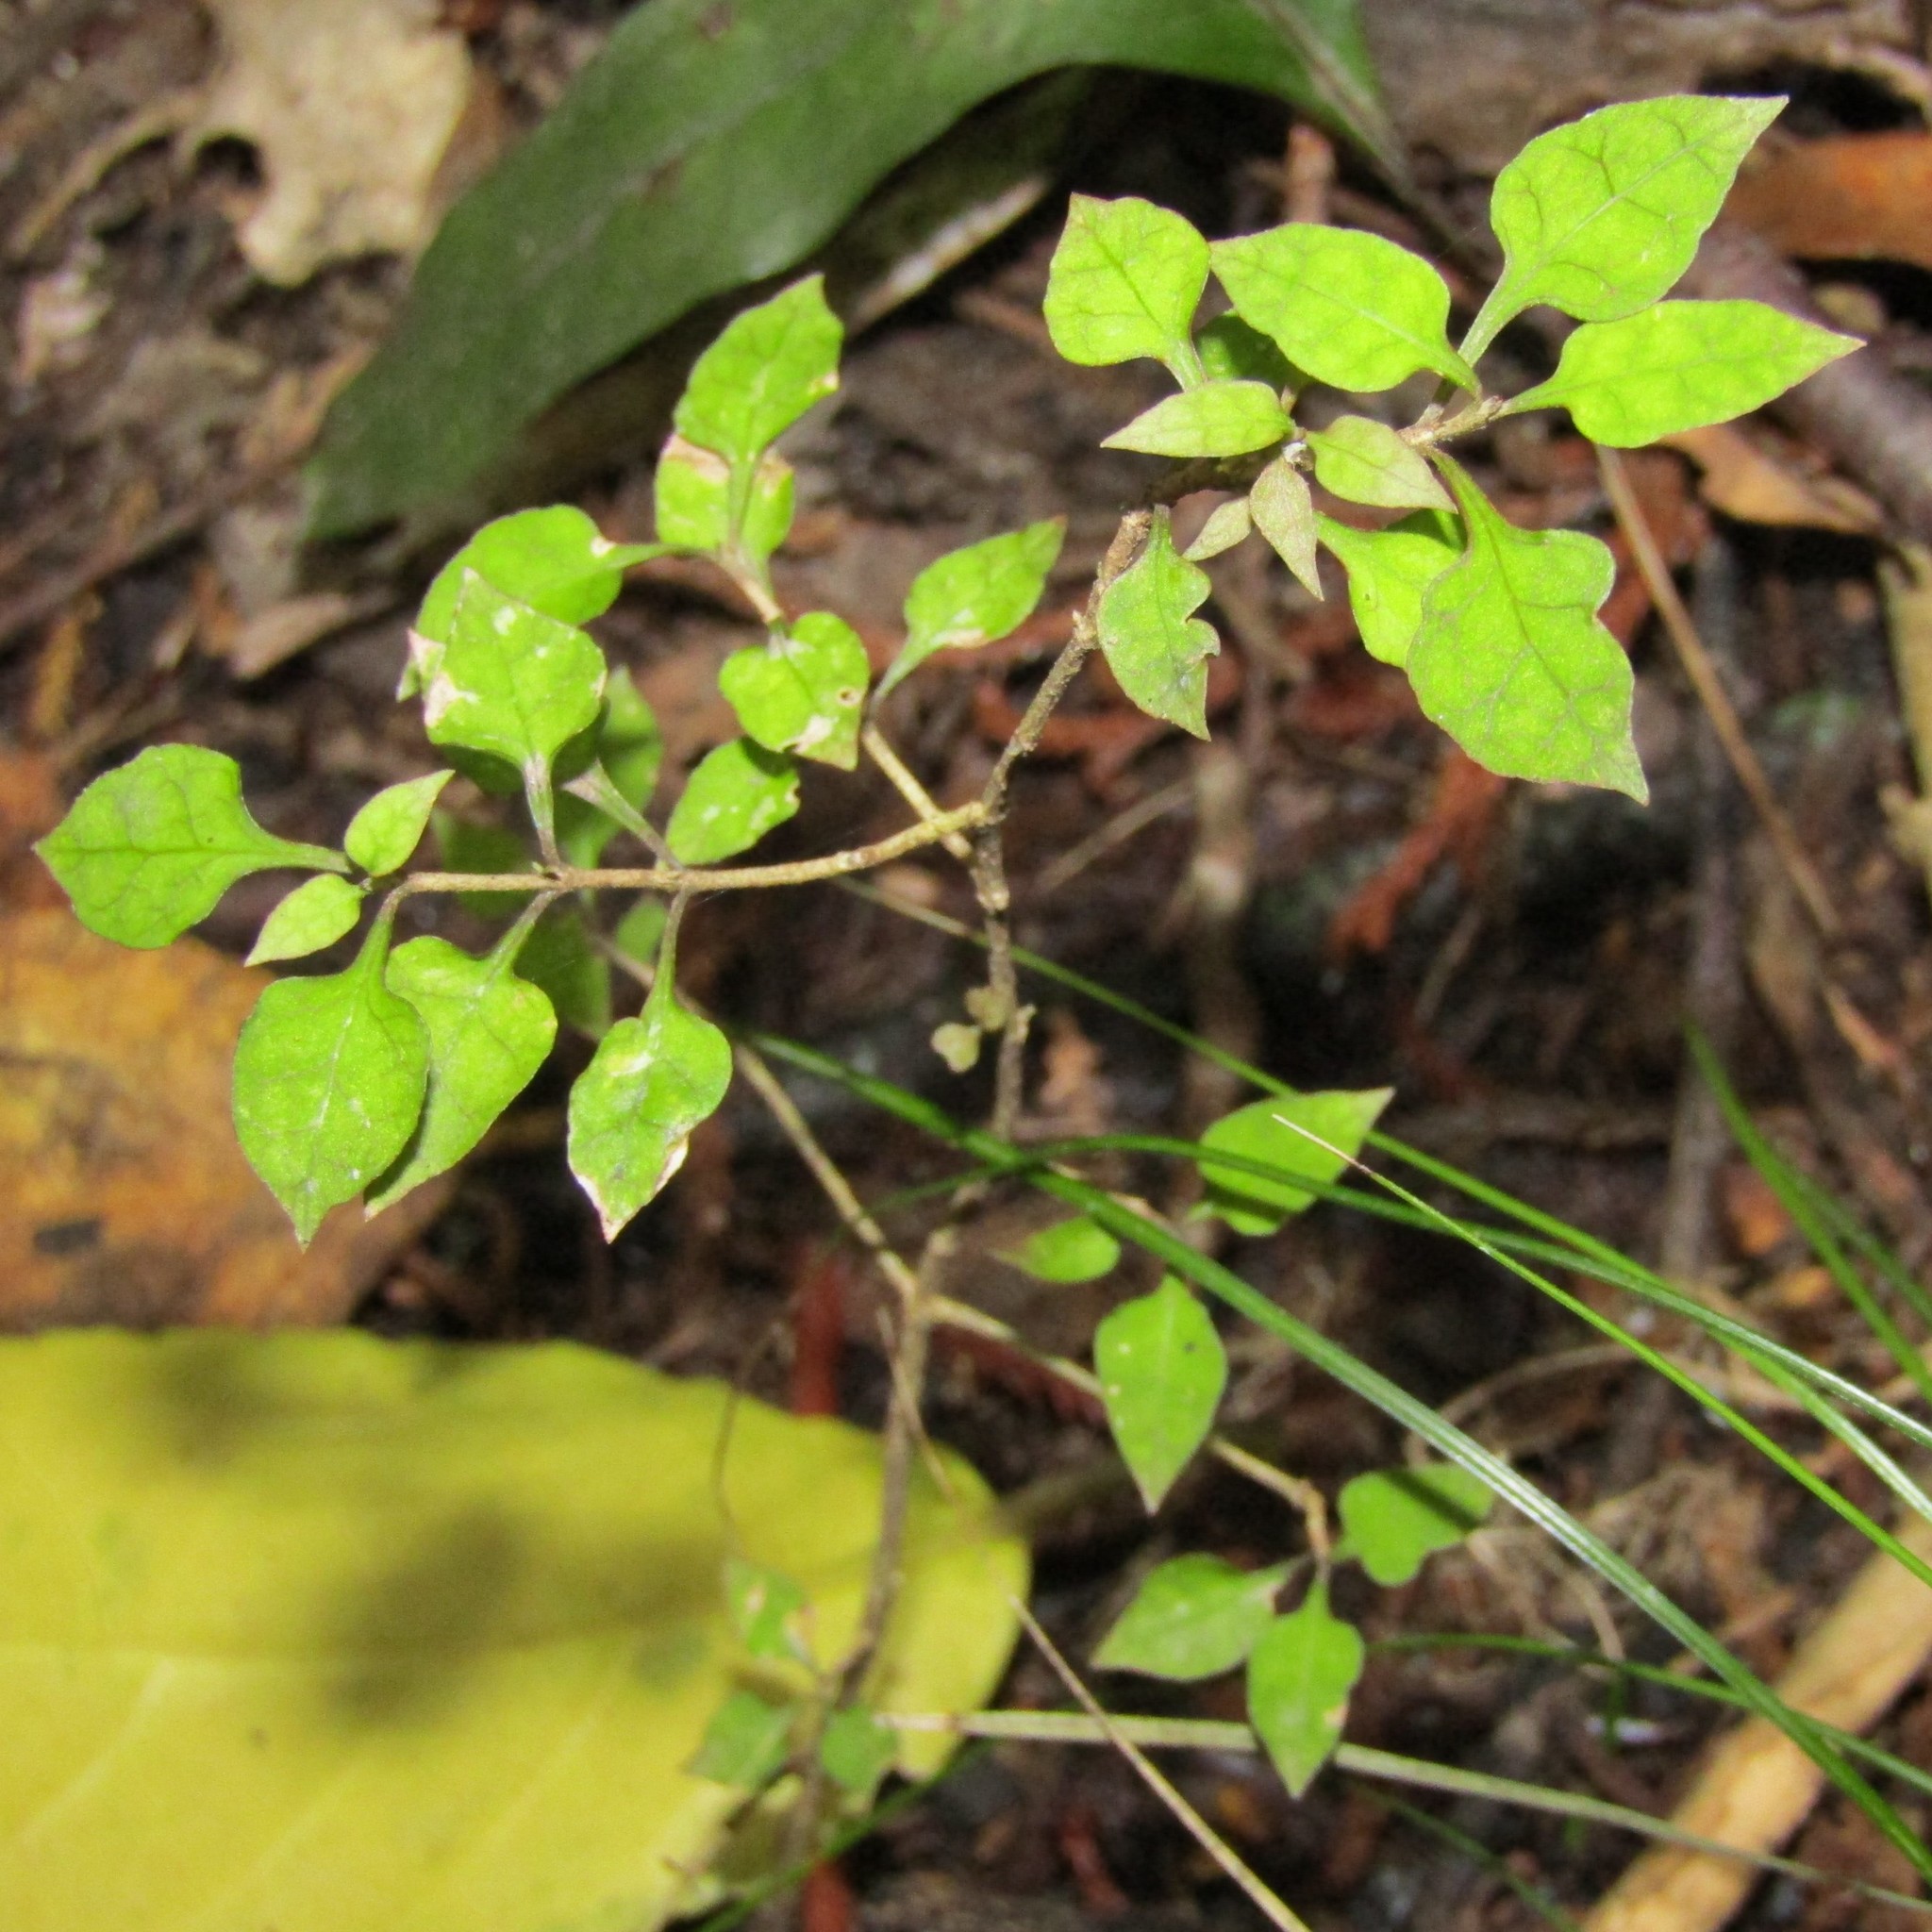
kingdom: Plantae
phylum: Tracheophyta
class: Magnoliopsida
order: Gentianales
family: Rubiaceae
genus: Coprosma
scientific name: Coprosma areolata
